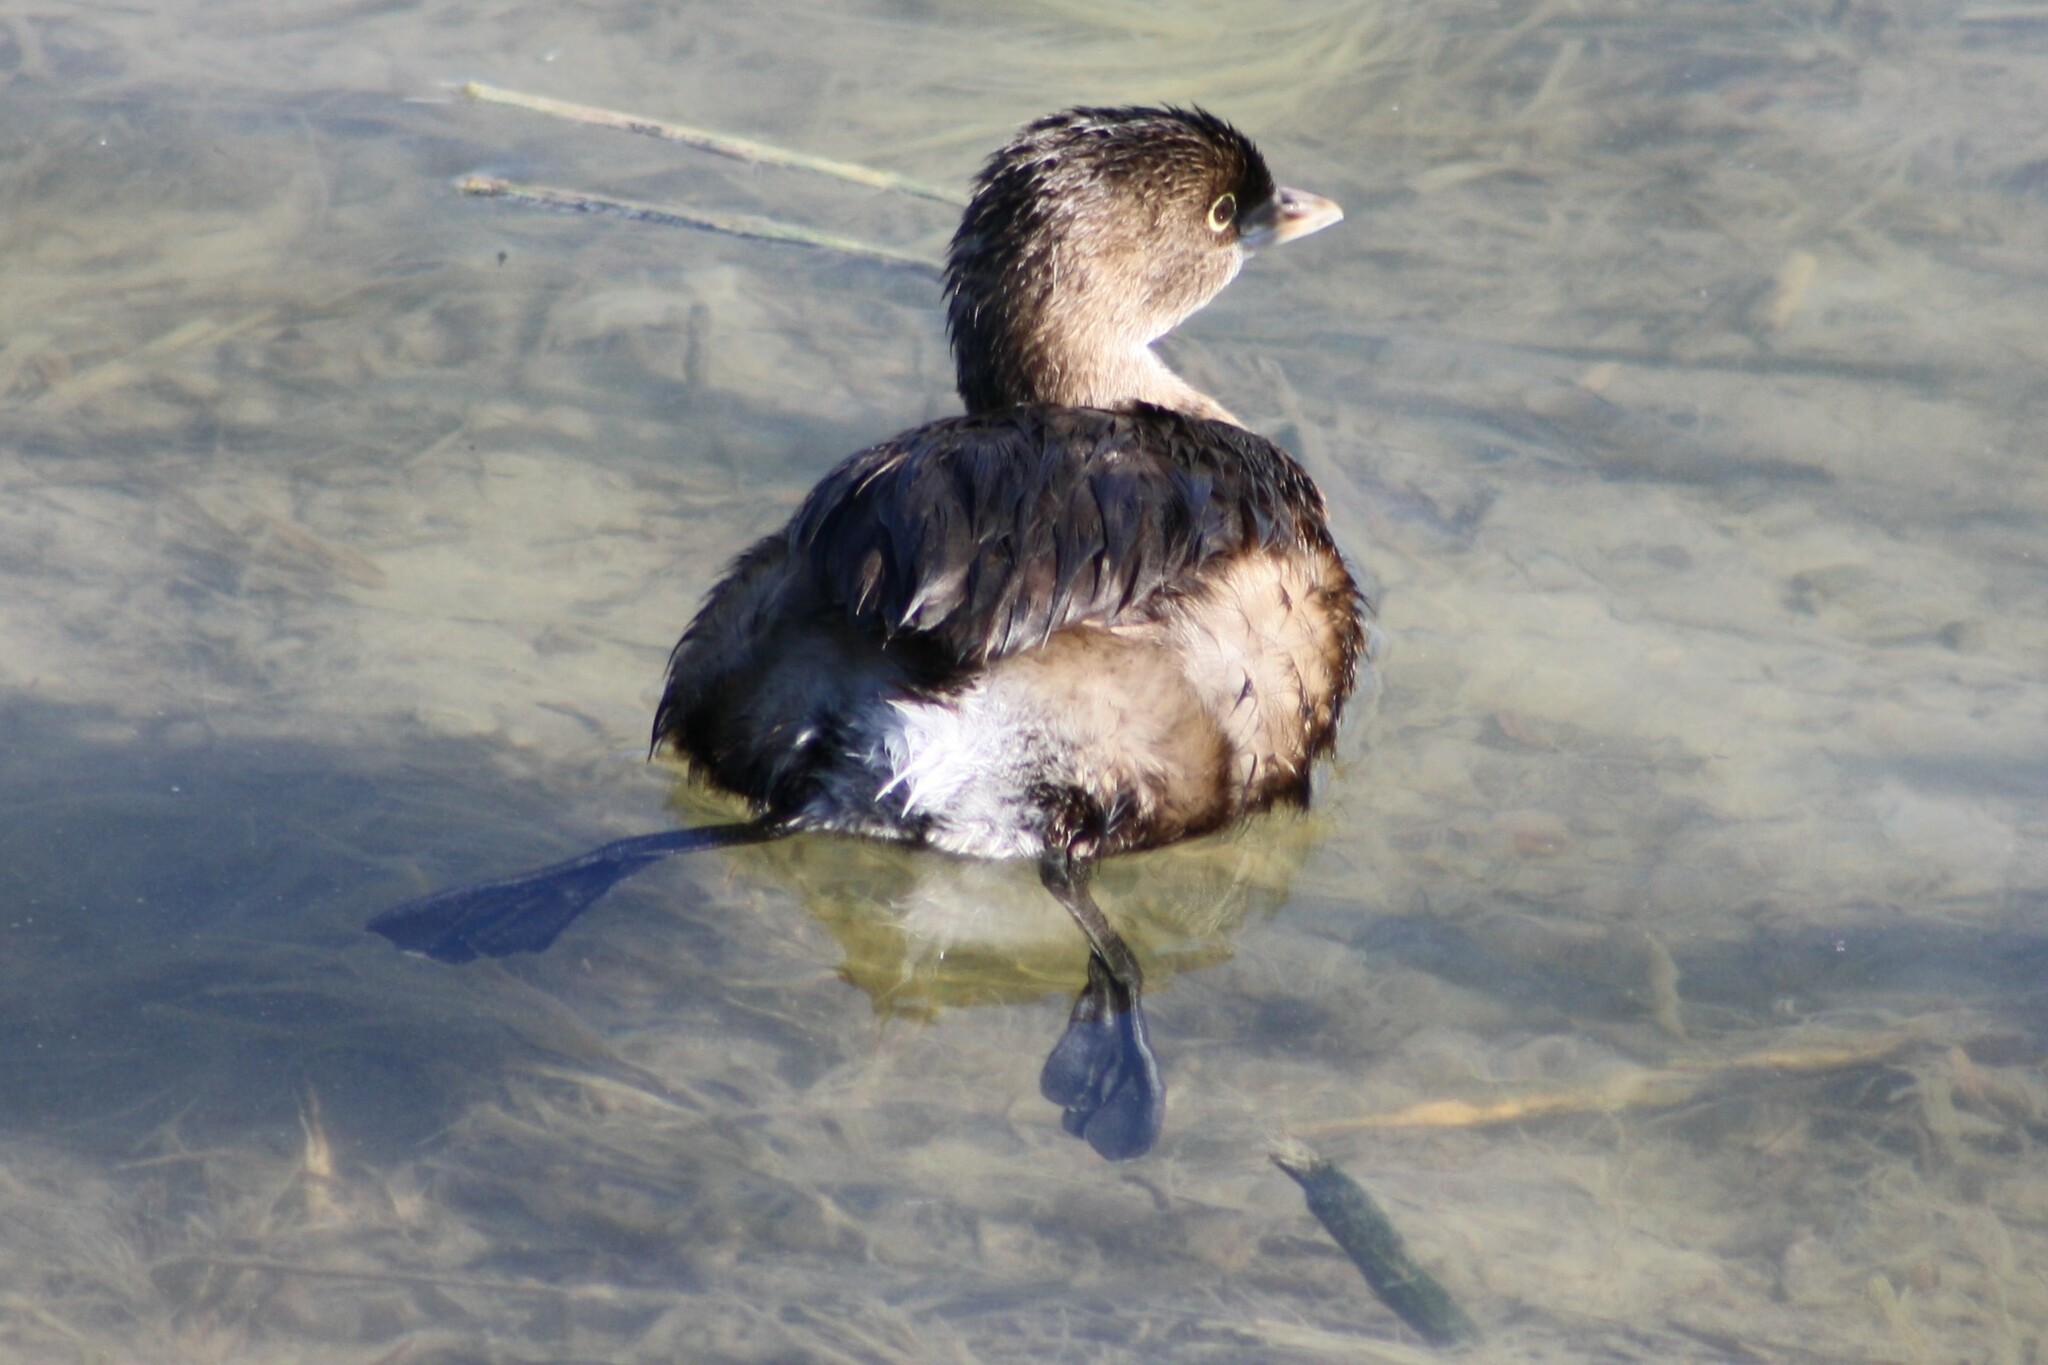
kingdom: Animalia
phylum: Chordata
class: Aves
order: Podicipediformes
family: Podicipedidae
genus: Podilymbus
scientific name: Podilymbus podiceps
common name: Pied-billed grebe
